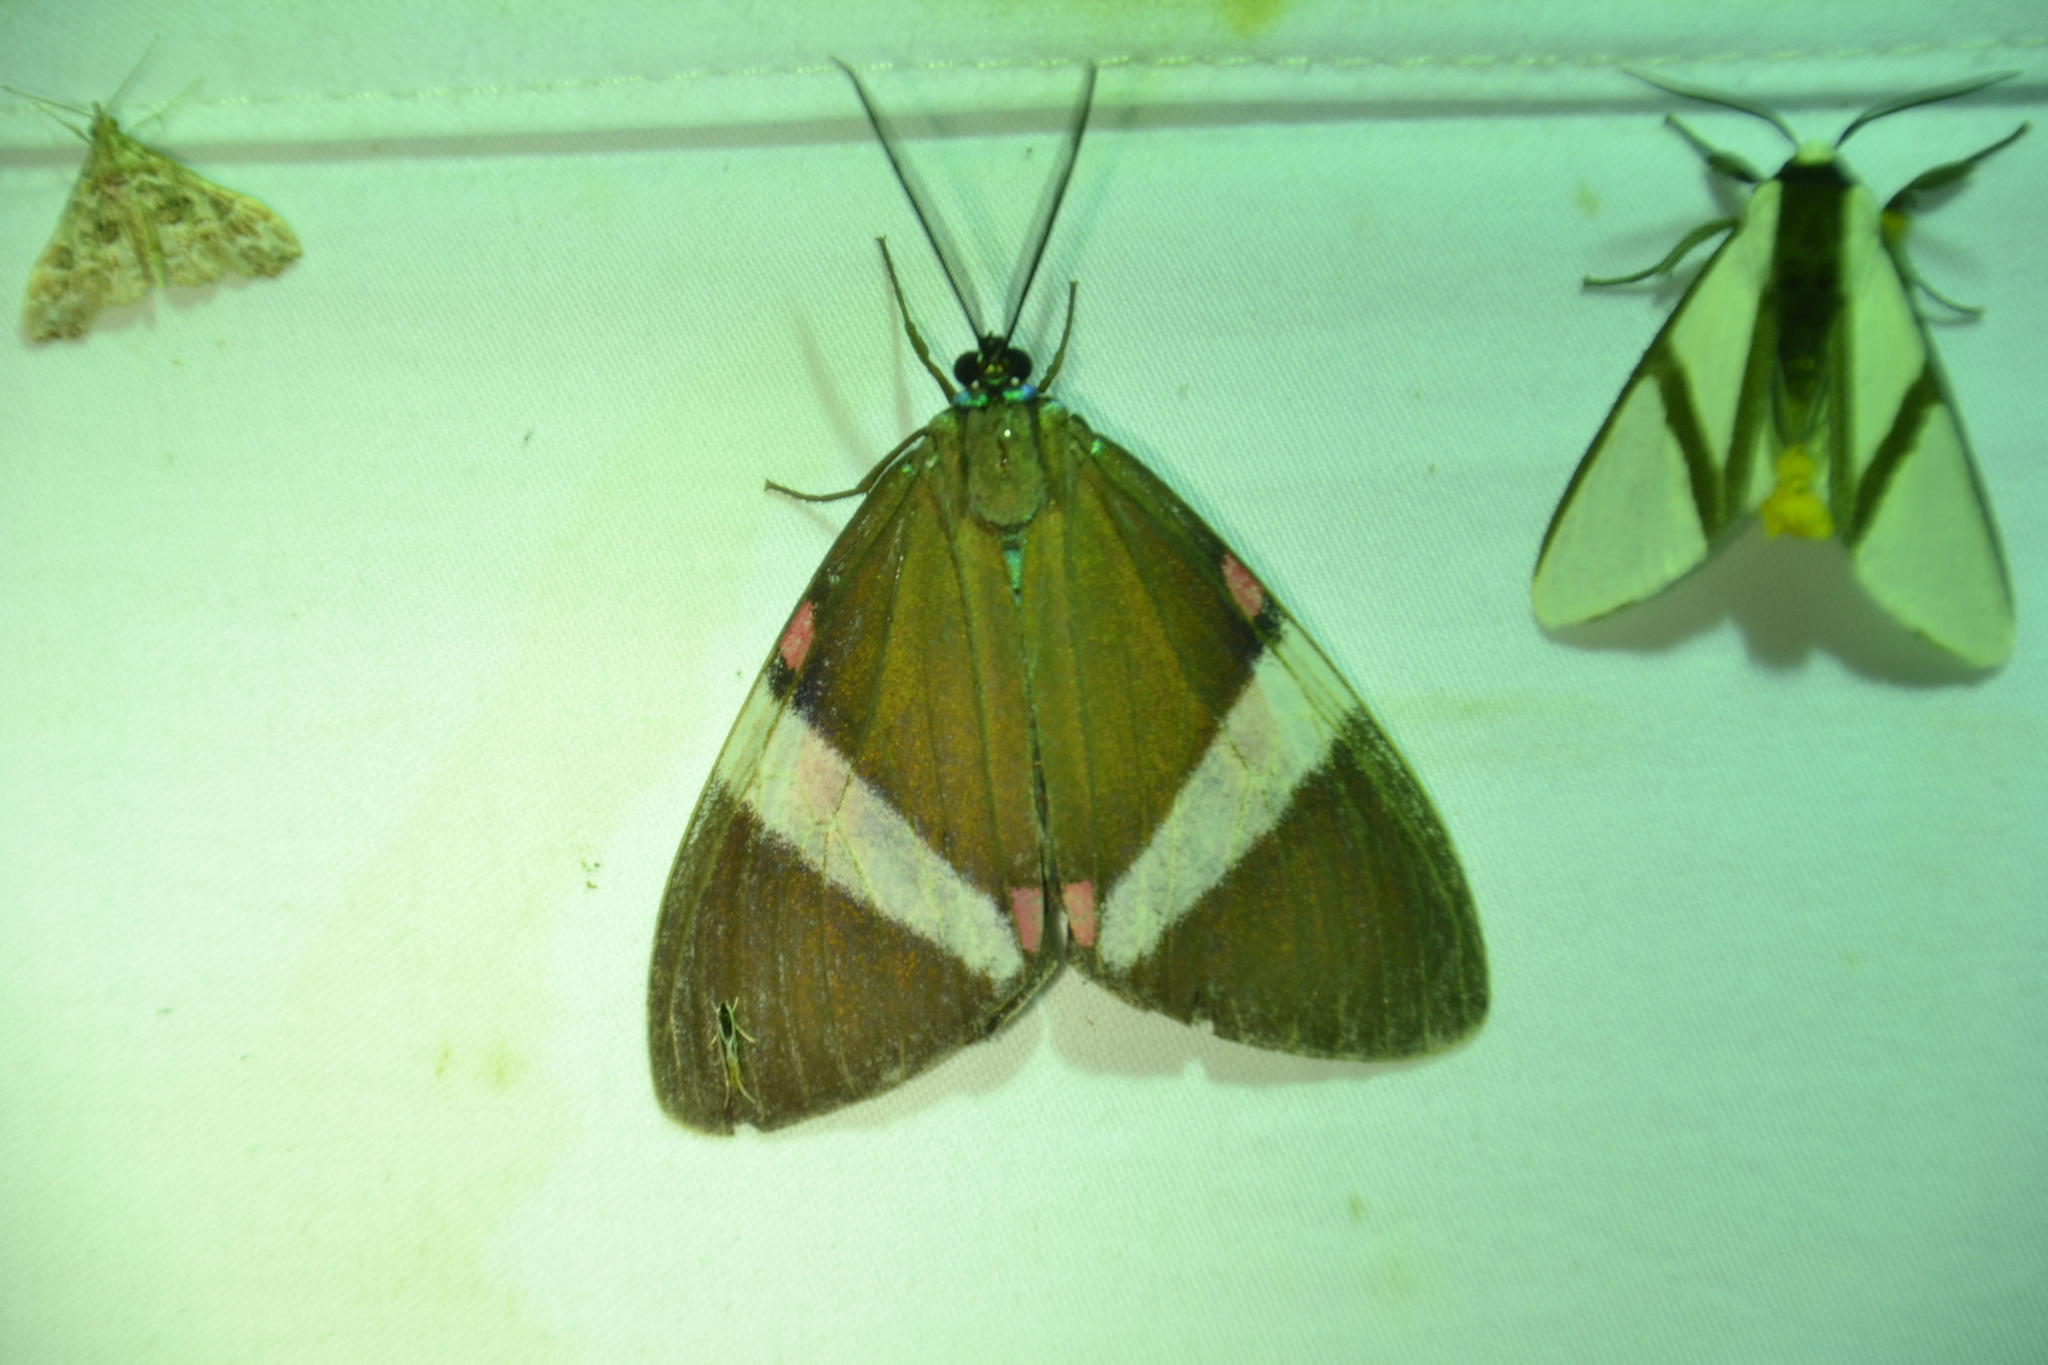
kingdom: Animalia
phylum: Arthropoda
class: Insecta
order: Lepidoptera
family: Erebidae
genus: Hypocrita
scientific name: Hypocrita reedia
